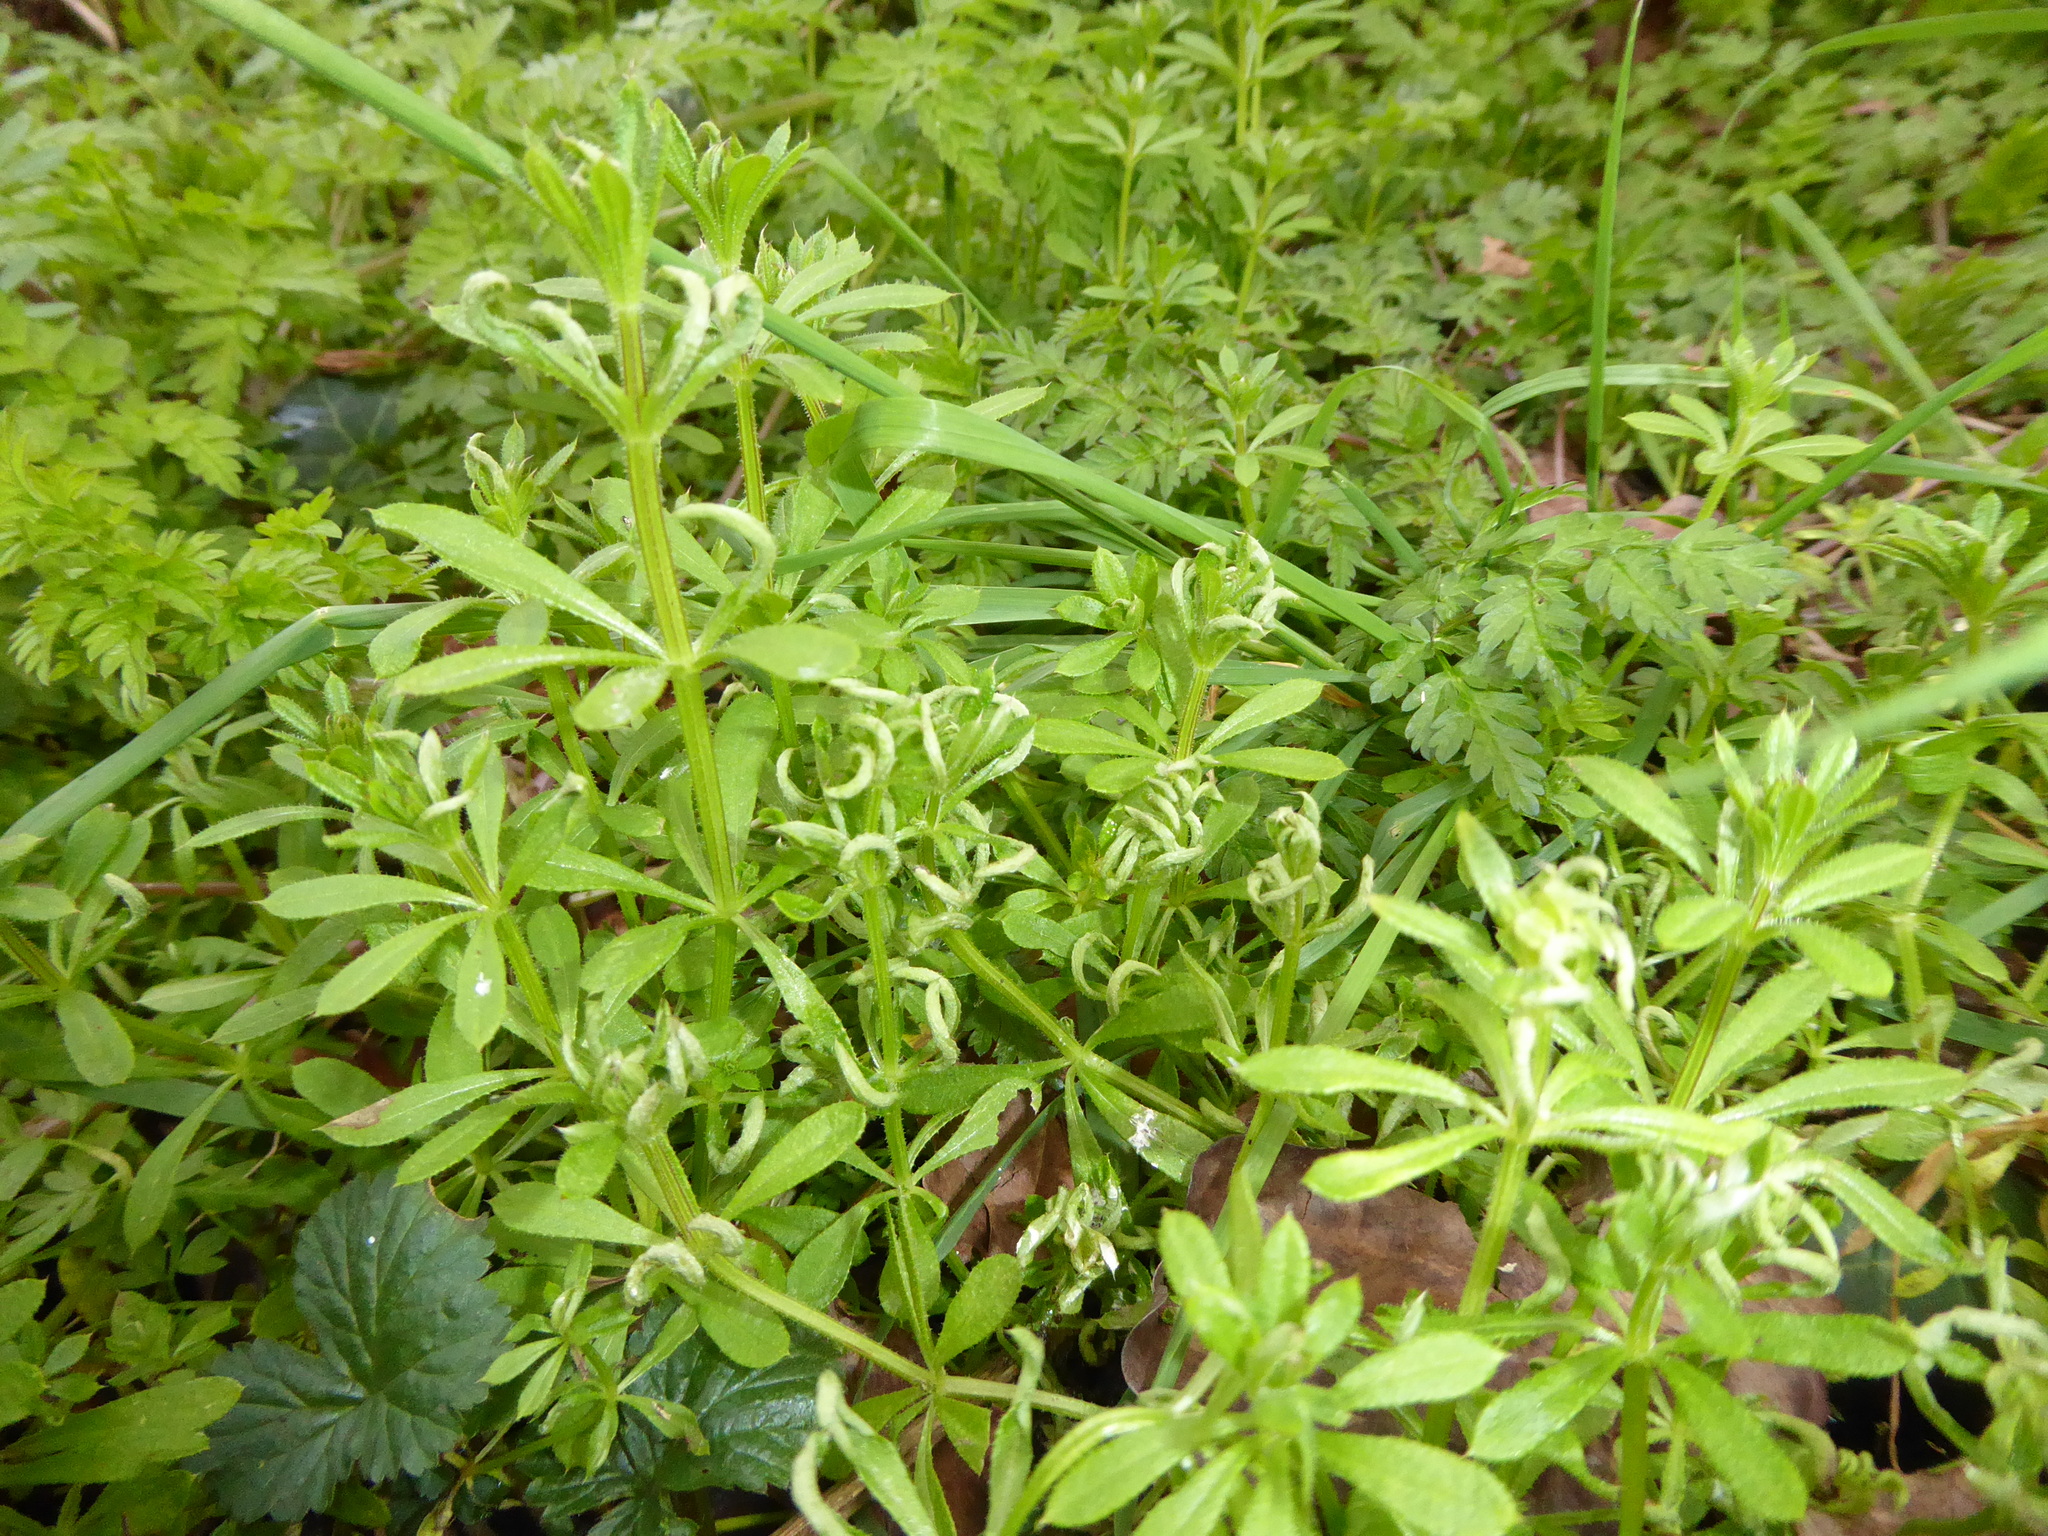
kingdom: Plantae
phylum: Tracheophyta
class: Magnoliopsida
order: Gentianales
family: Rubiaceae
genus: Galium
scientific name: Galium aparine
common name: Cleavers
